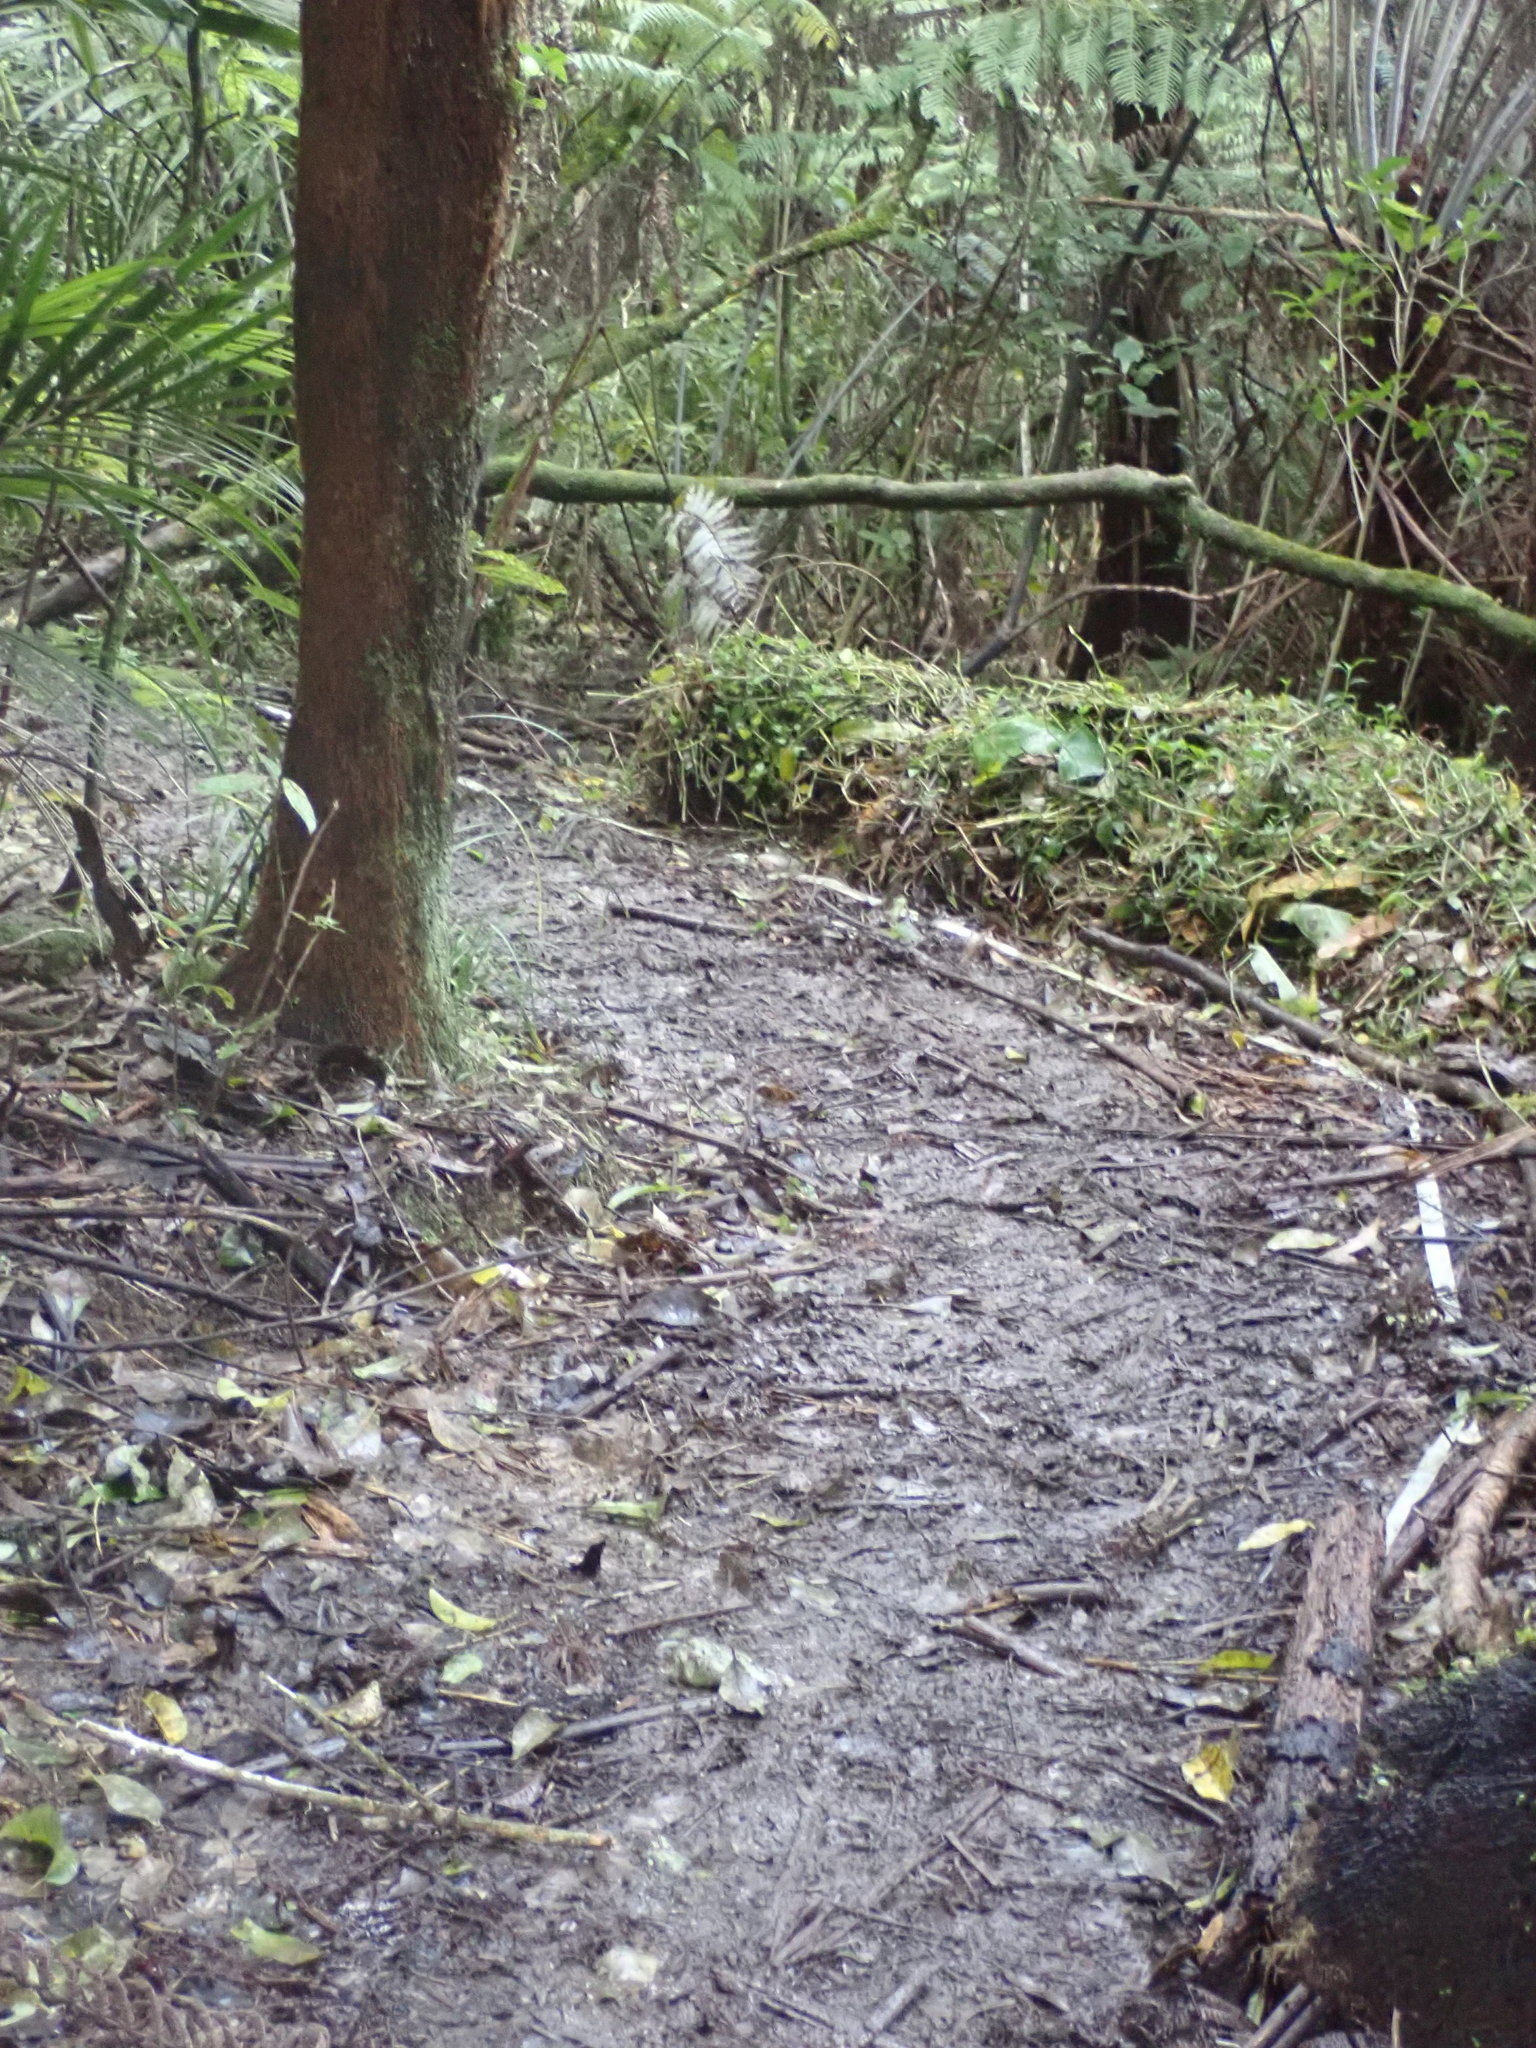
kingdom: Plantae
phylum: Tracheophyta
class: Liliopsida
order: Commelinales
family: Commelinaceae
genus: Tradescantia
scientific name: Tradescantia fluminensis
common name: Wandering-jew
